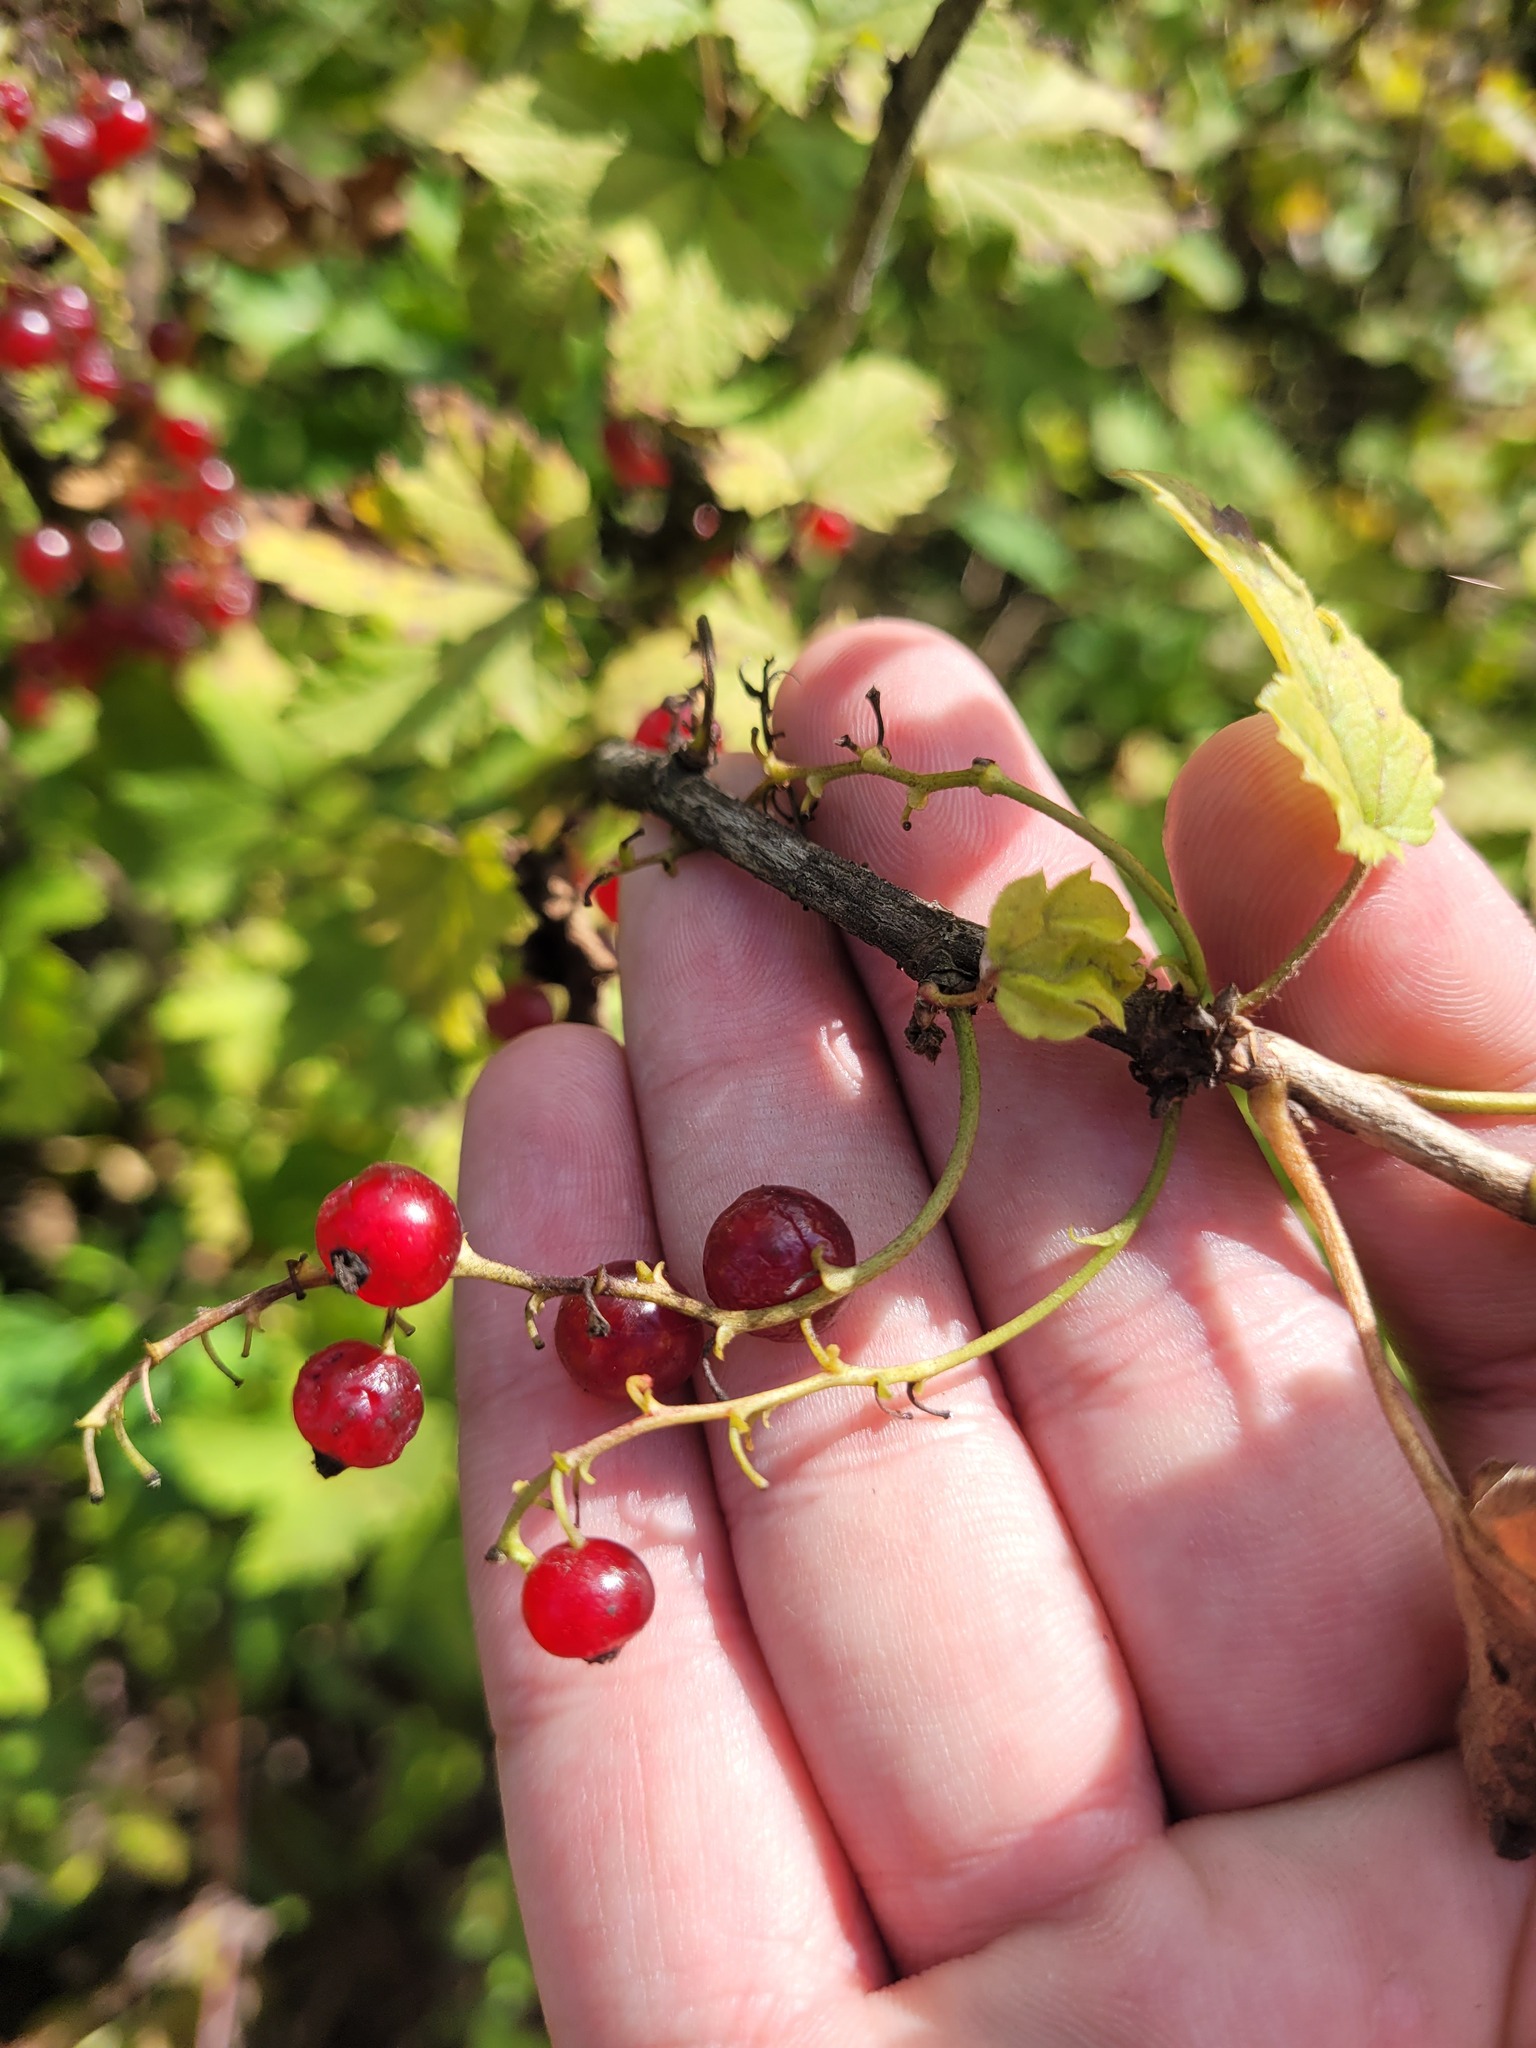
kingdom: Plantae
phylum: Tracheophyta
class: Magnoliopsida
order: Saxifragales
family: Grossulariaceae
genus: Ribes
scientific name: Ribes spicatum
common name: Downy currant
